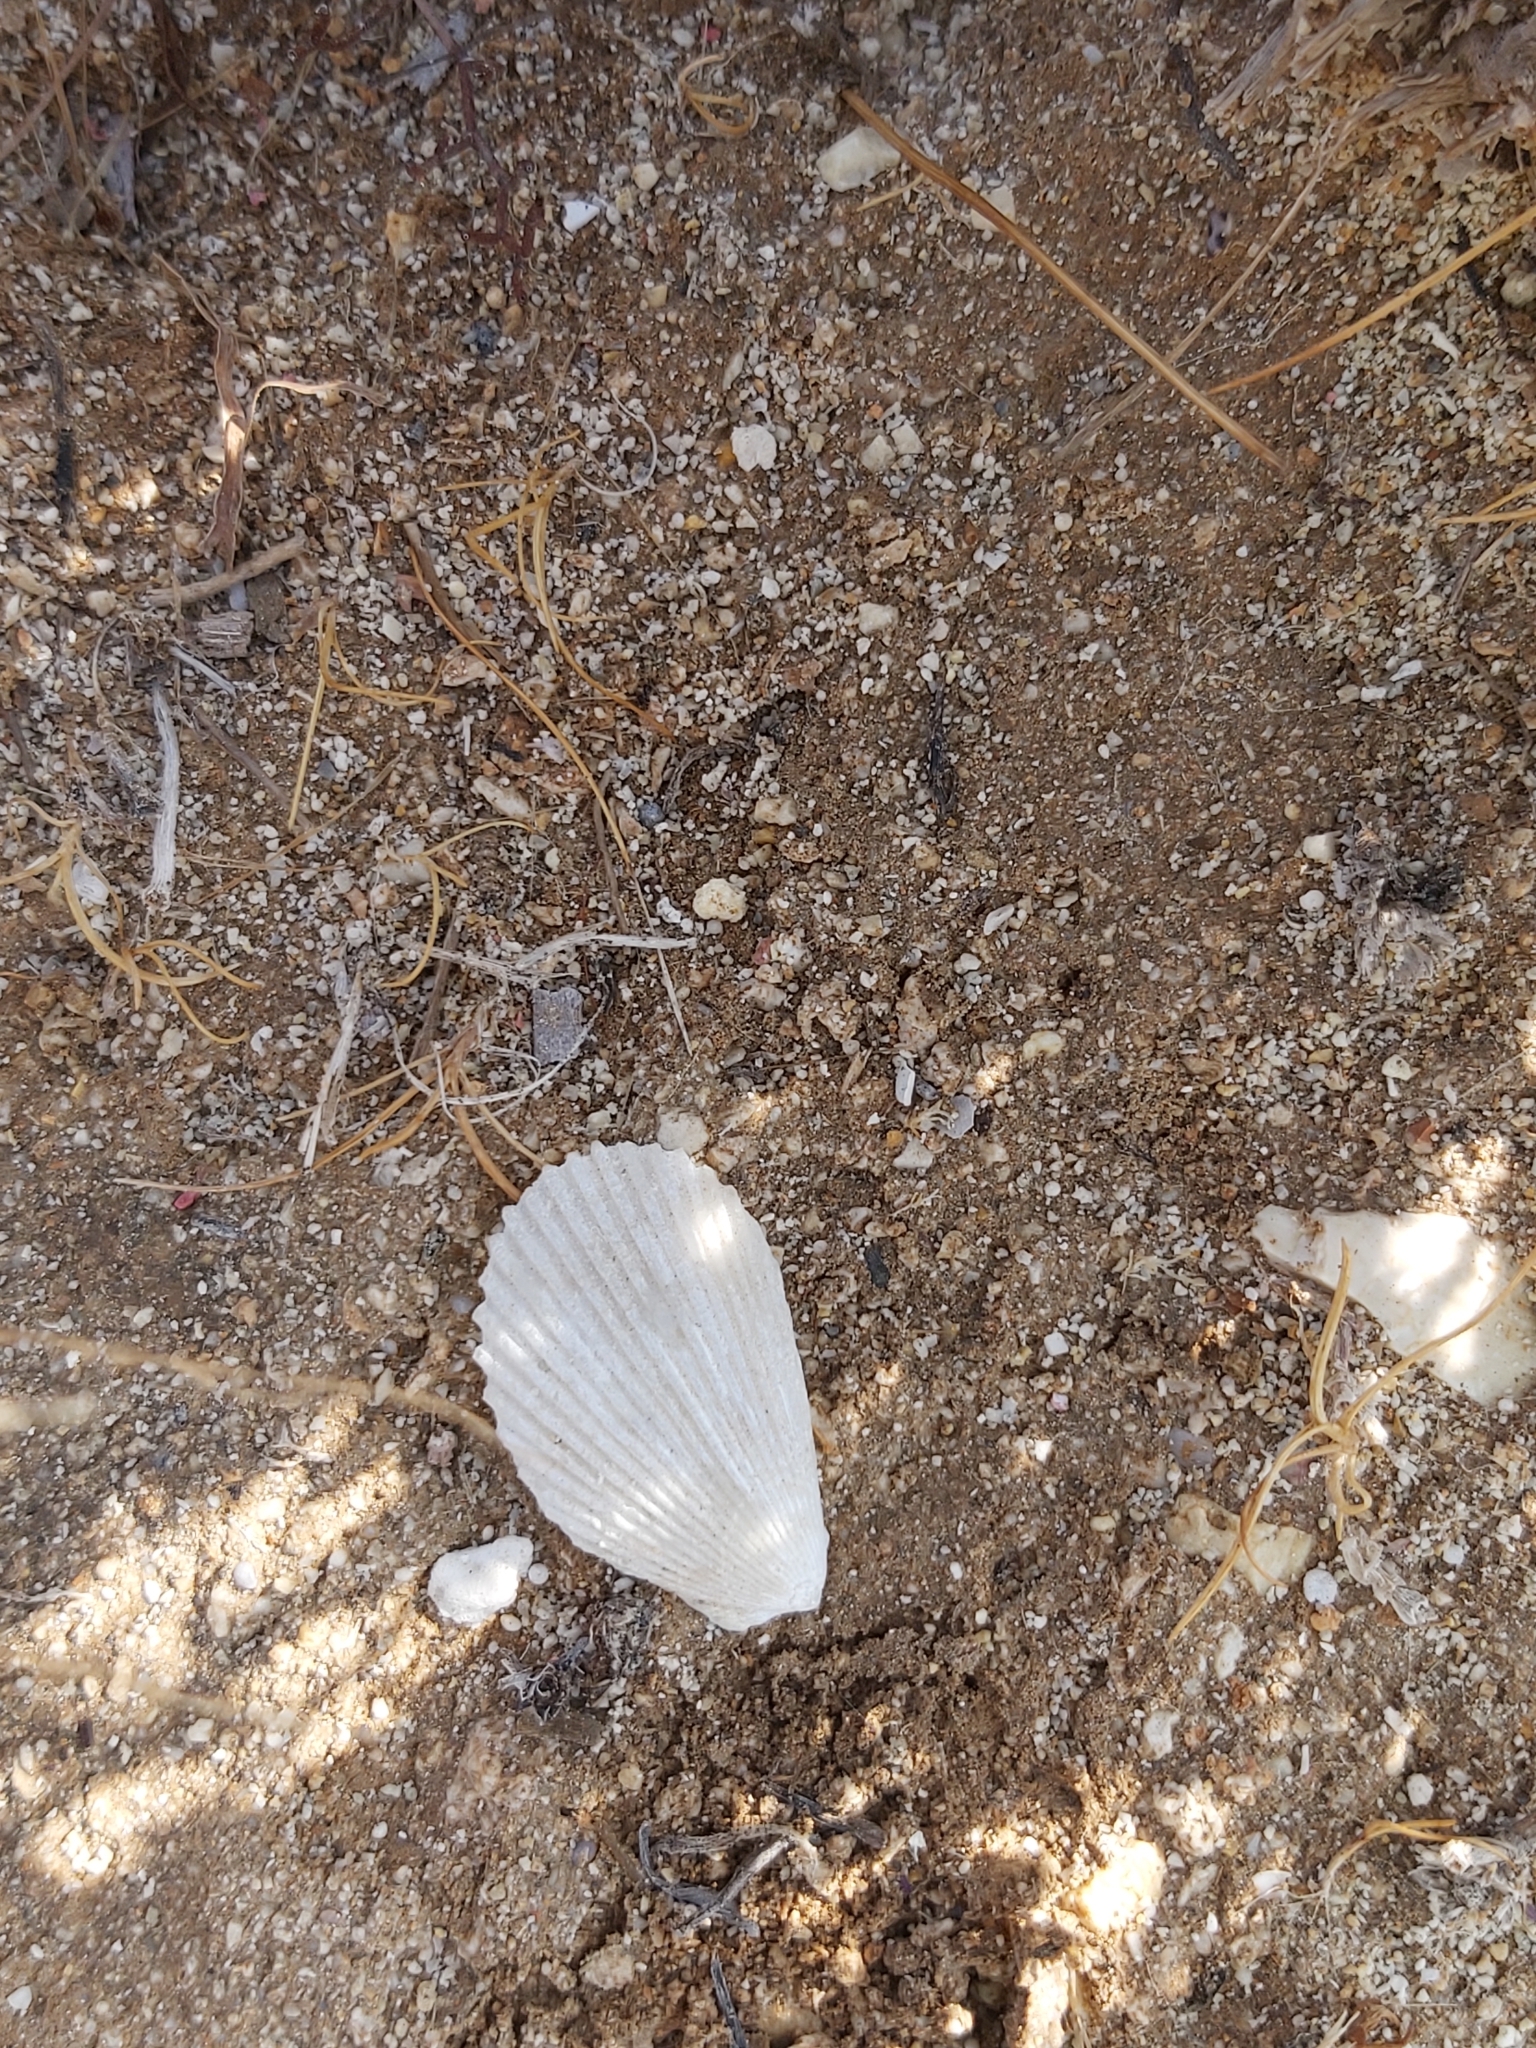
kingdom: Animalia
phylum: Mollusca
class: Bivalvia
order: Limida
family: Limidae
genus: Lima
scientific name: Lima lima
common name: Frilled file shell
